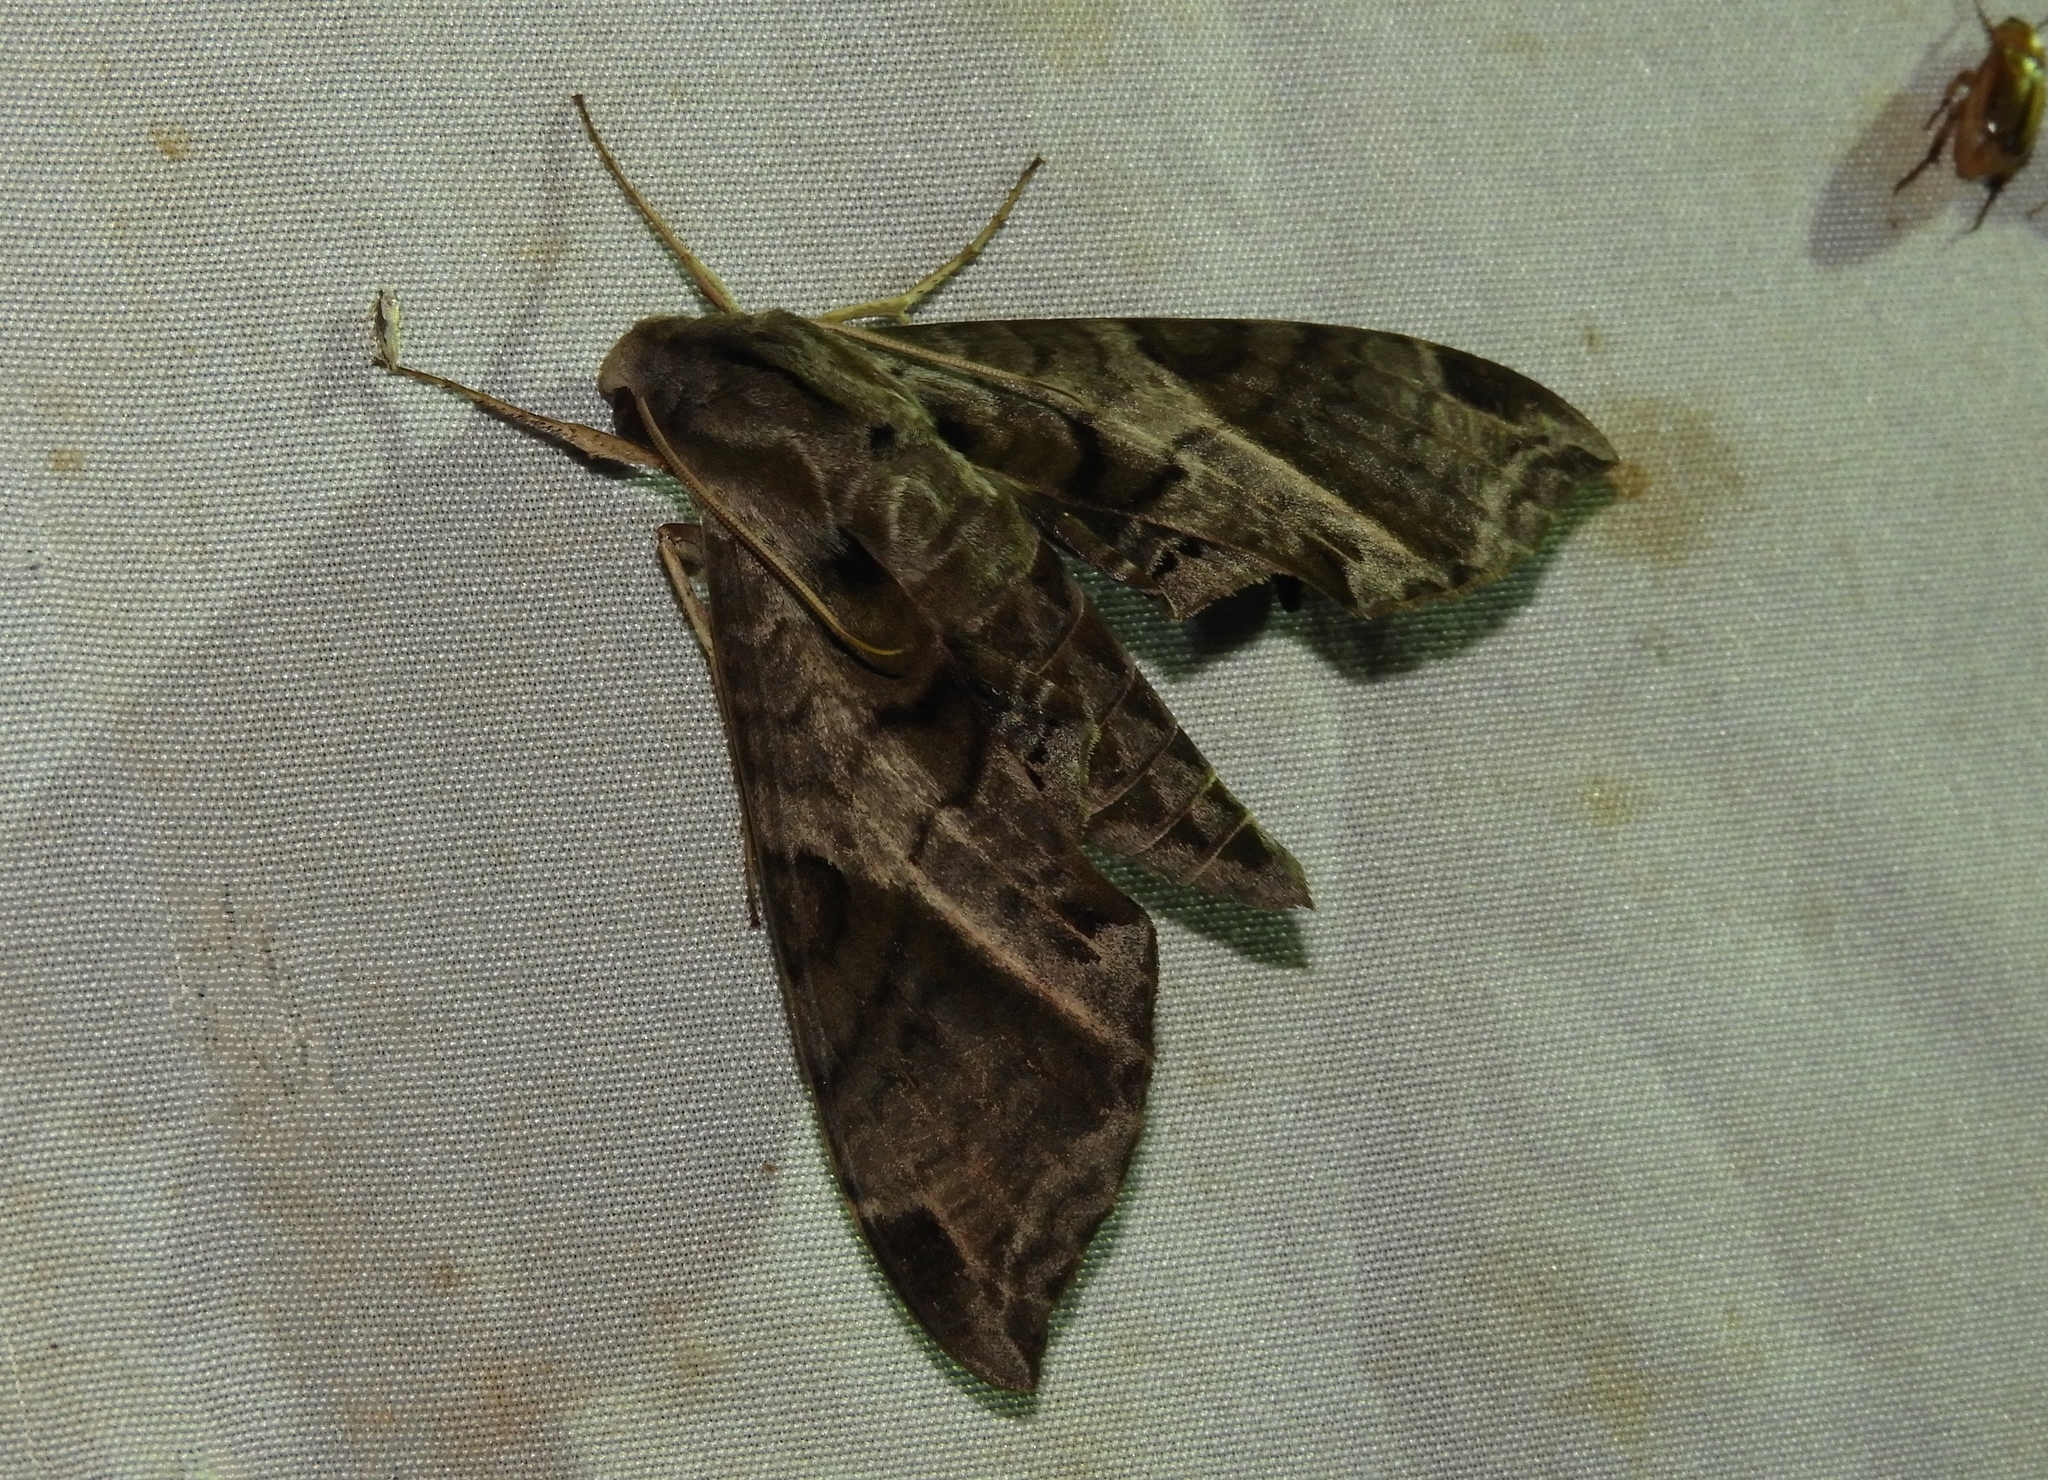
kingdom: Animalia
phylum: Arthropoda
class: Insecta
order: Lepidoptera
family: Sphingidae
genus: Eumorpha
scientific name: Eumorpha elisa
